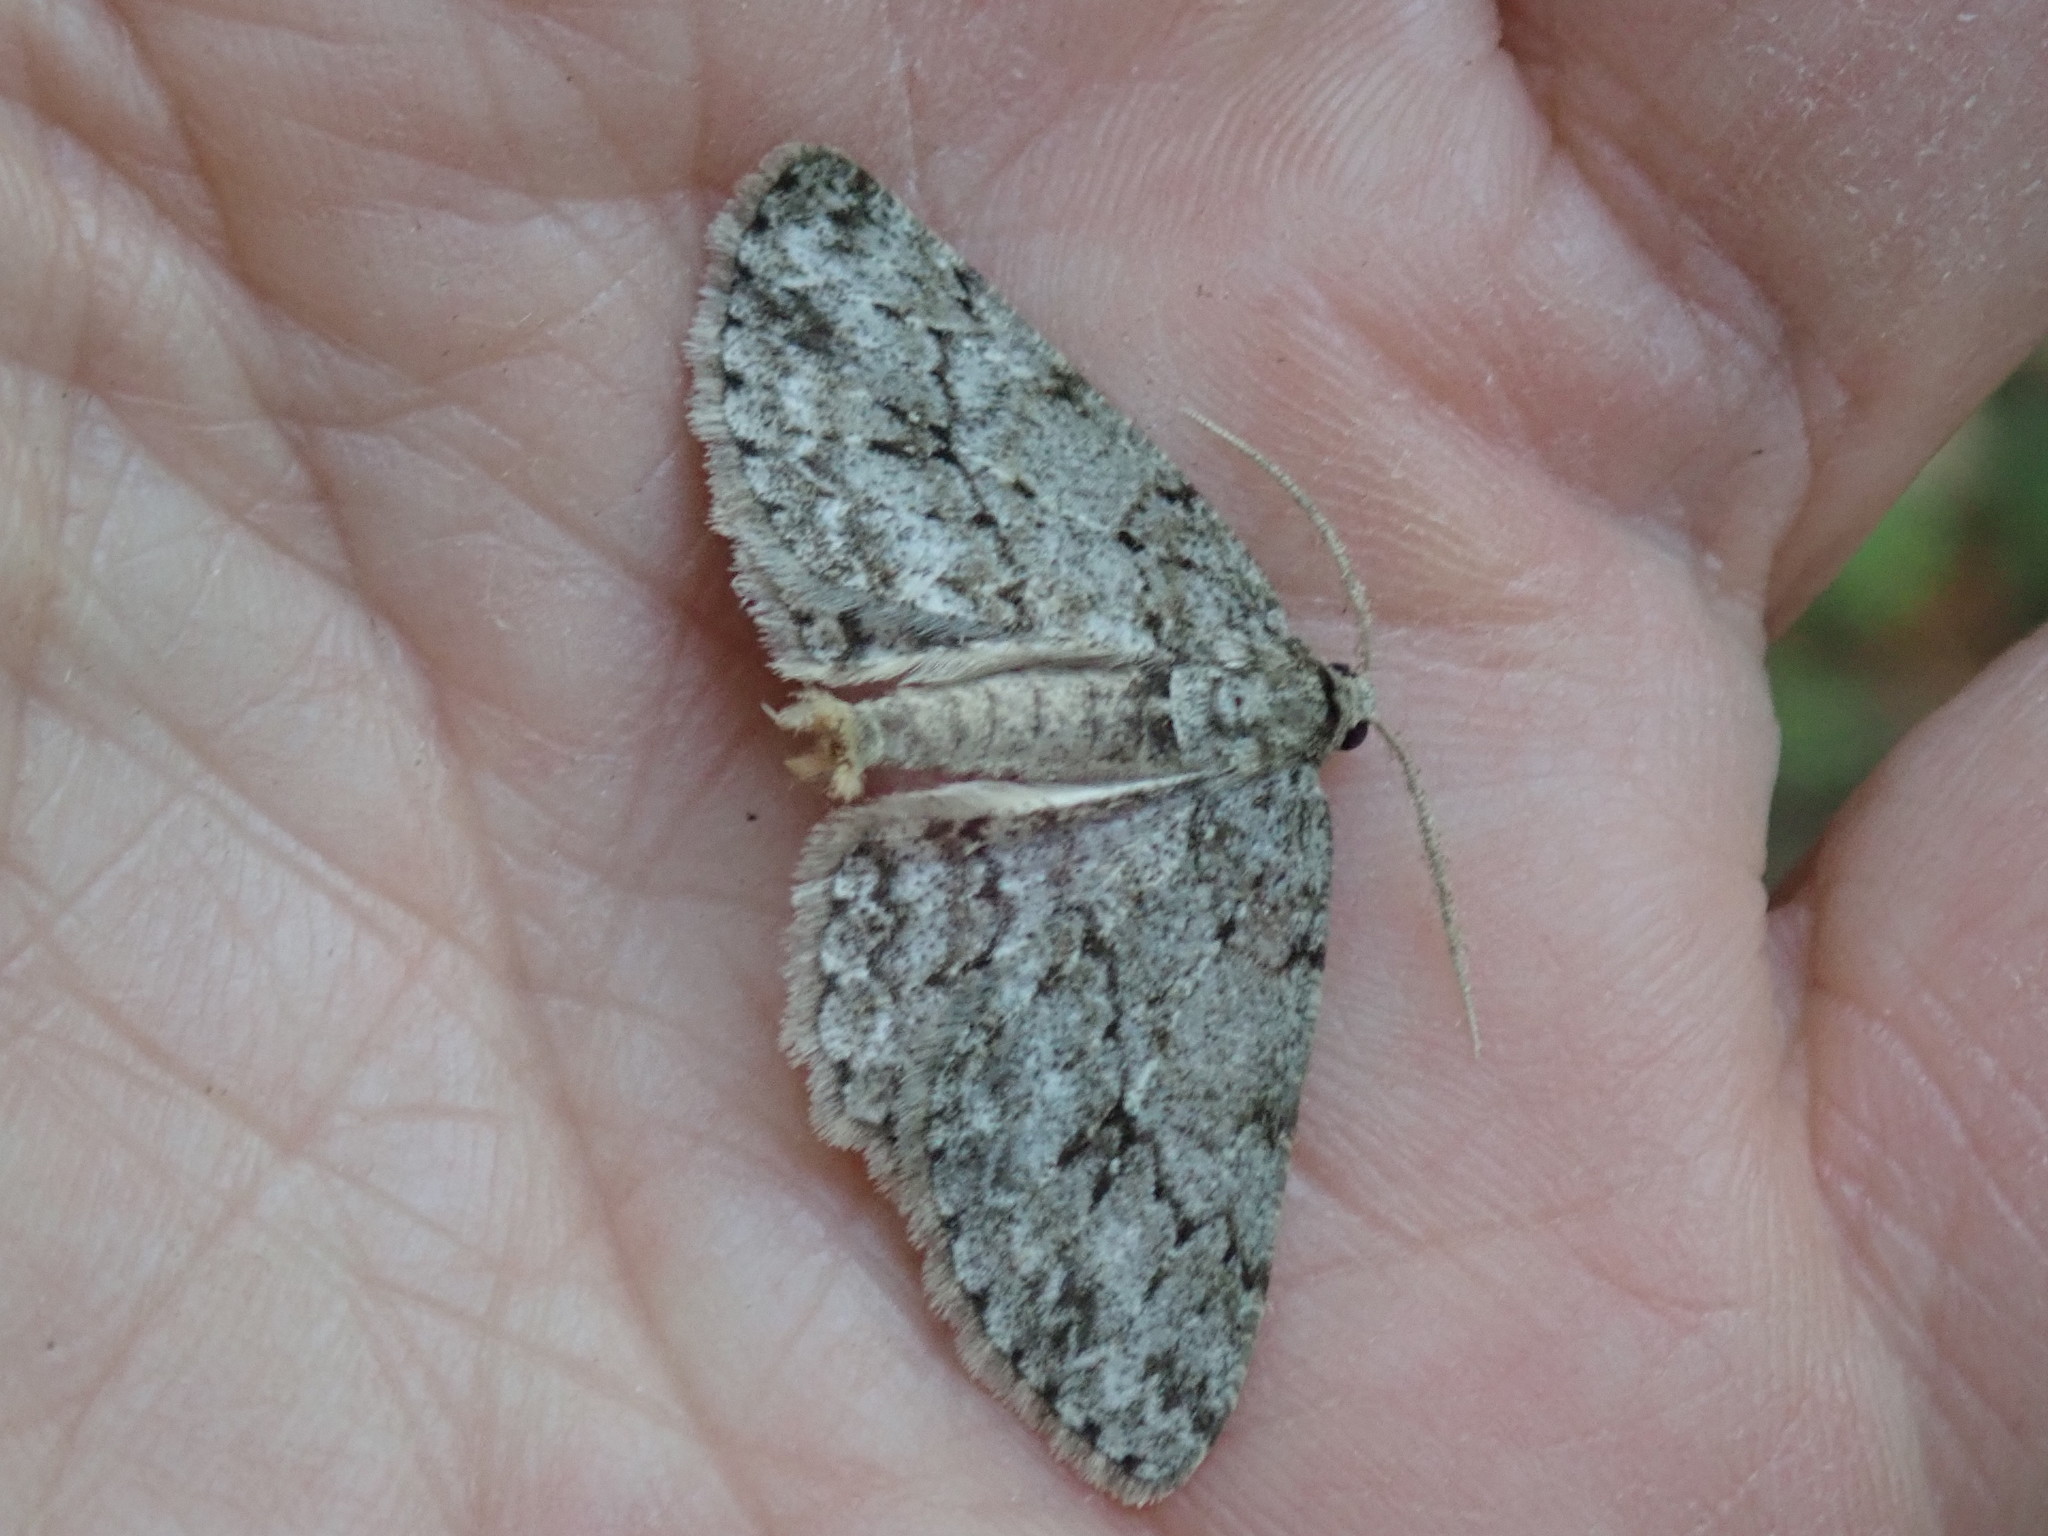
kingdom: Animalia
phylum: Arthropoda
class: Insecta
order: Lepidoptera
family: Geometridae
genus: Ectropis
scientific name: Ectropis crepuscularia
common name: Engrailed
